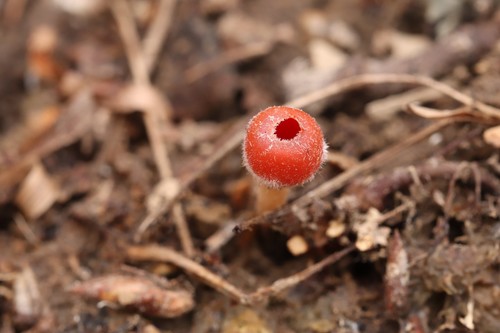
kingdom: Fungi
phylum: Ascomycota
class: Pezizomycetes
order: Pezizales
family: Sarcoscyphaceae
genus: Microstoma
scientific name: Microstoma protractum
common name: Rosy goblet
